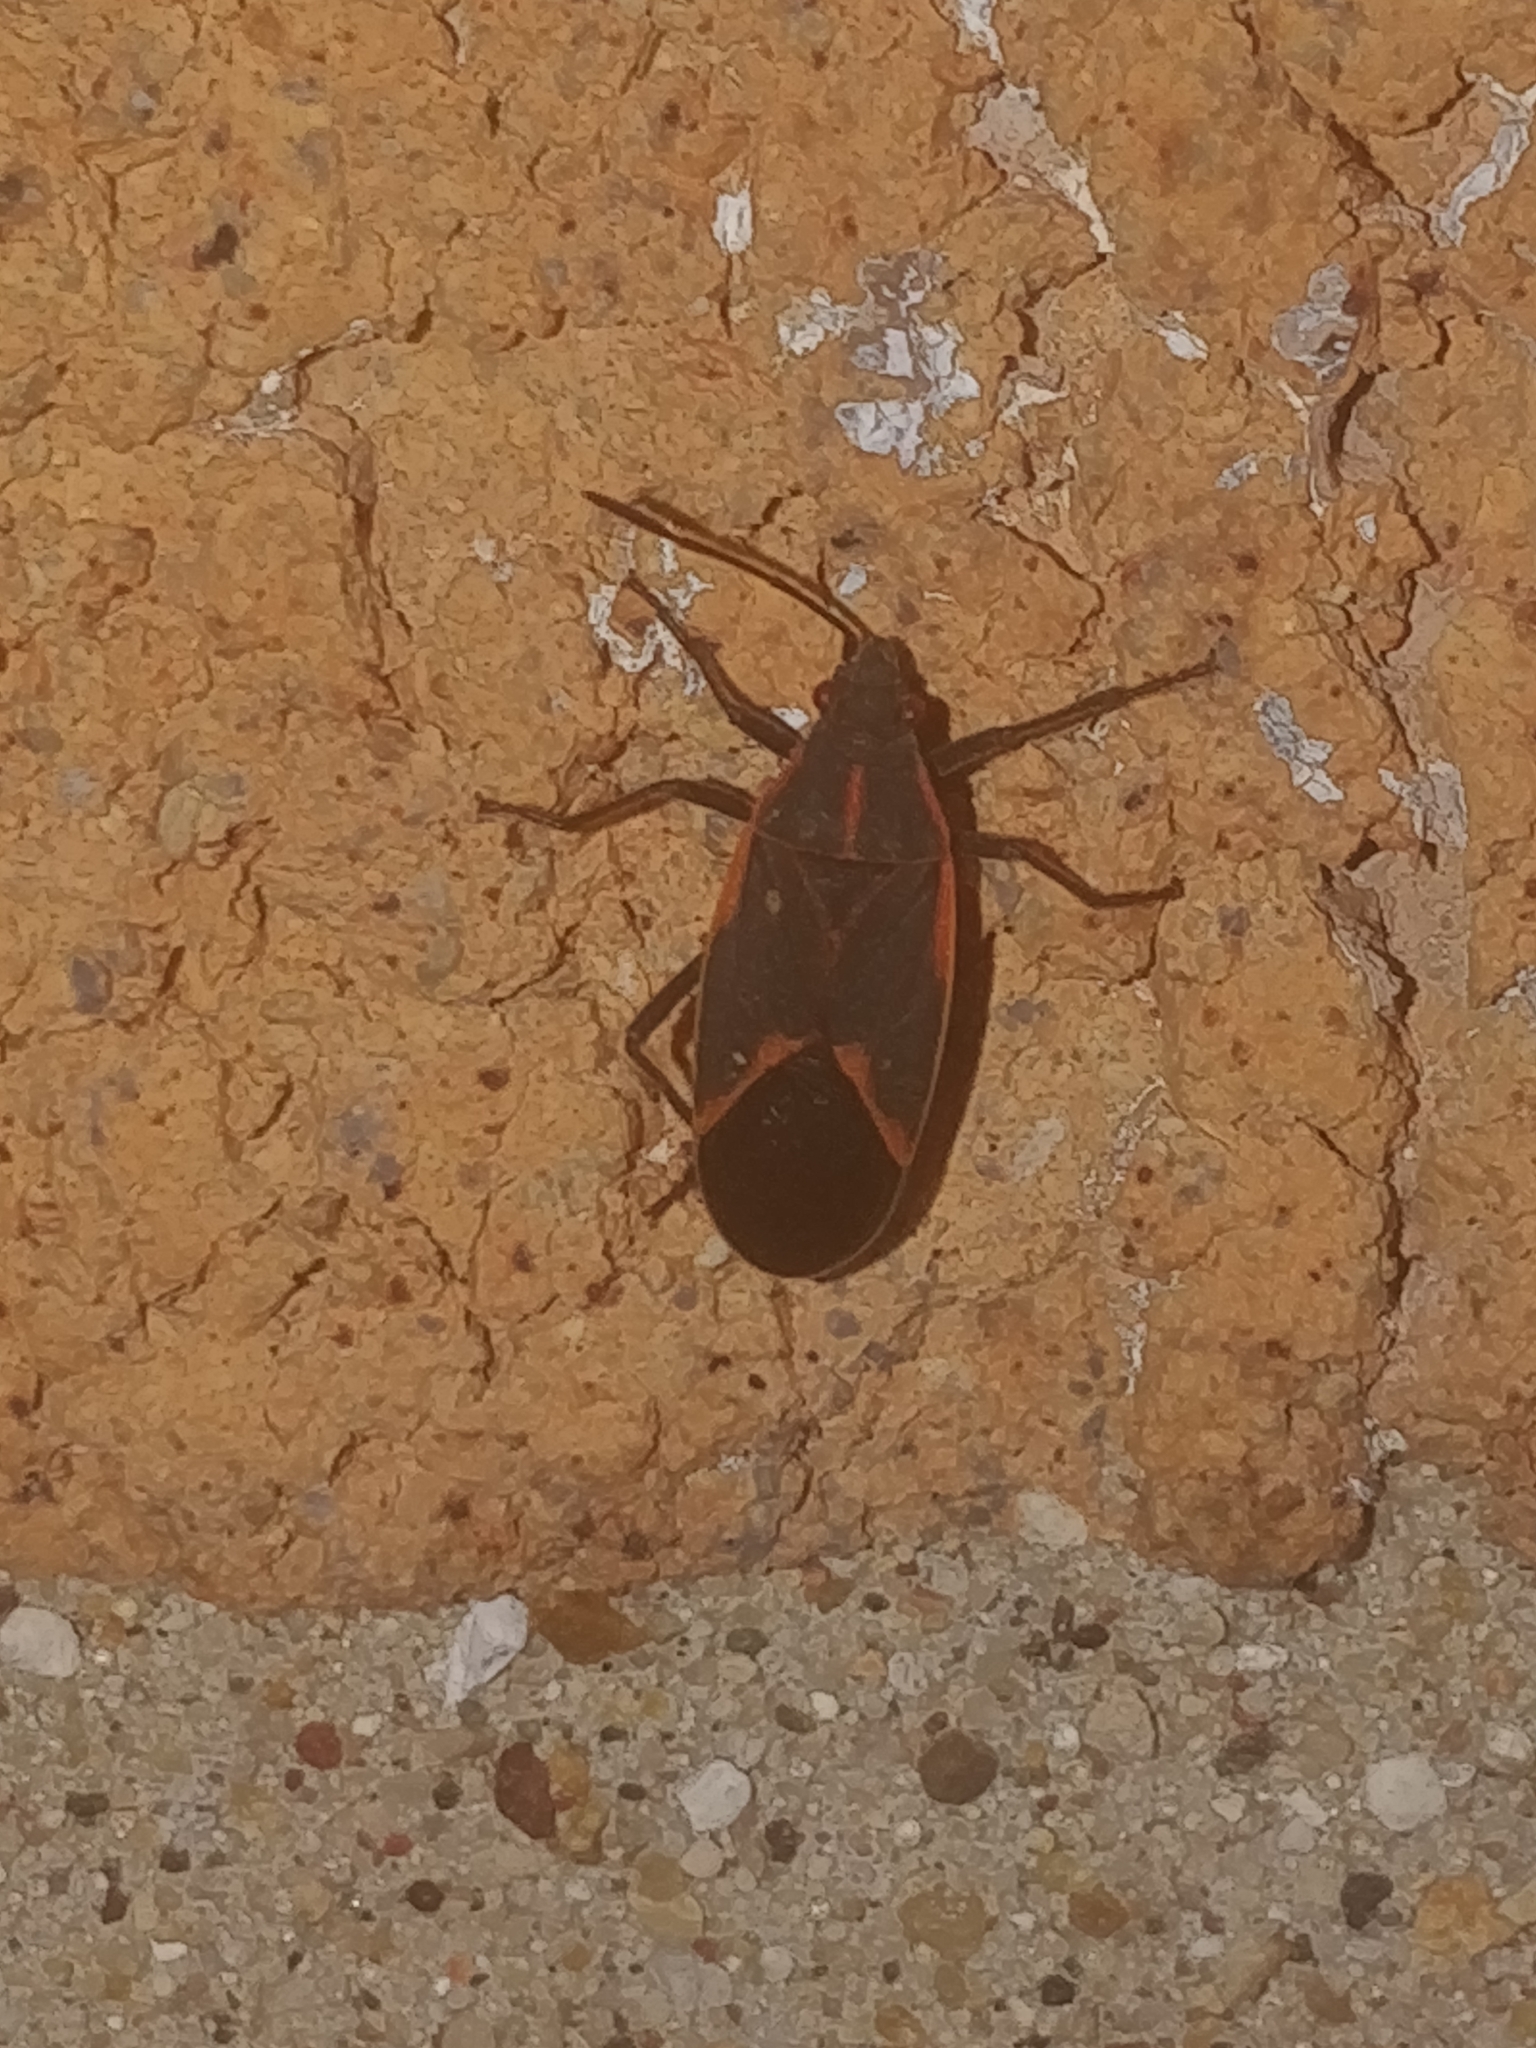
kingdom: Animalia
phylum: Arthropoda
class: Insecta
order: Hemiptera
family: Rhopalidae
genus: Boisea
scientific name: Boisea trivittata
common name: Boxelder bug
